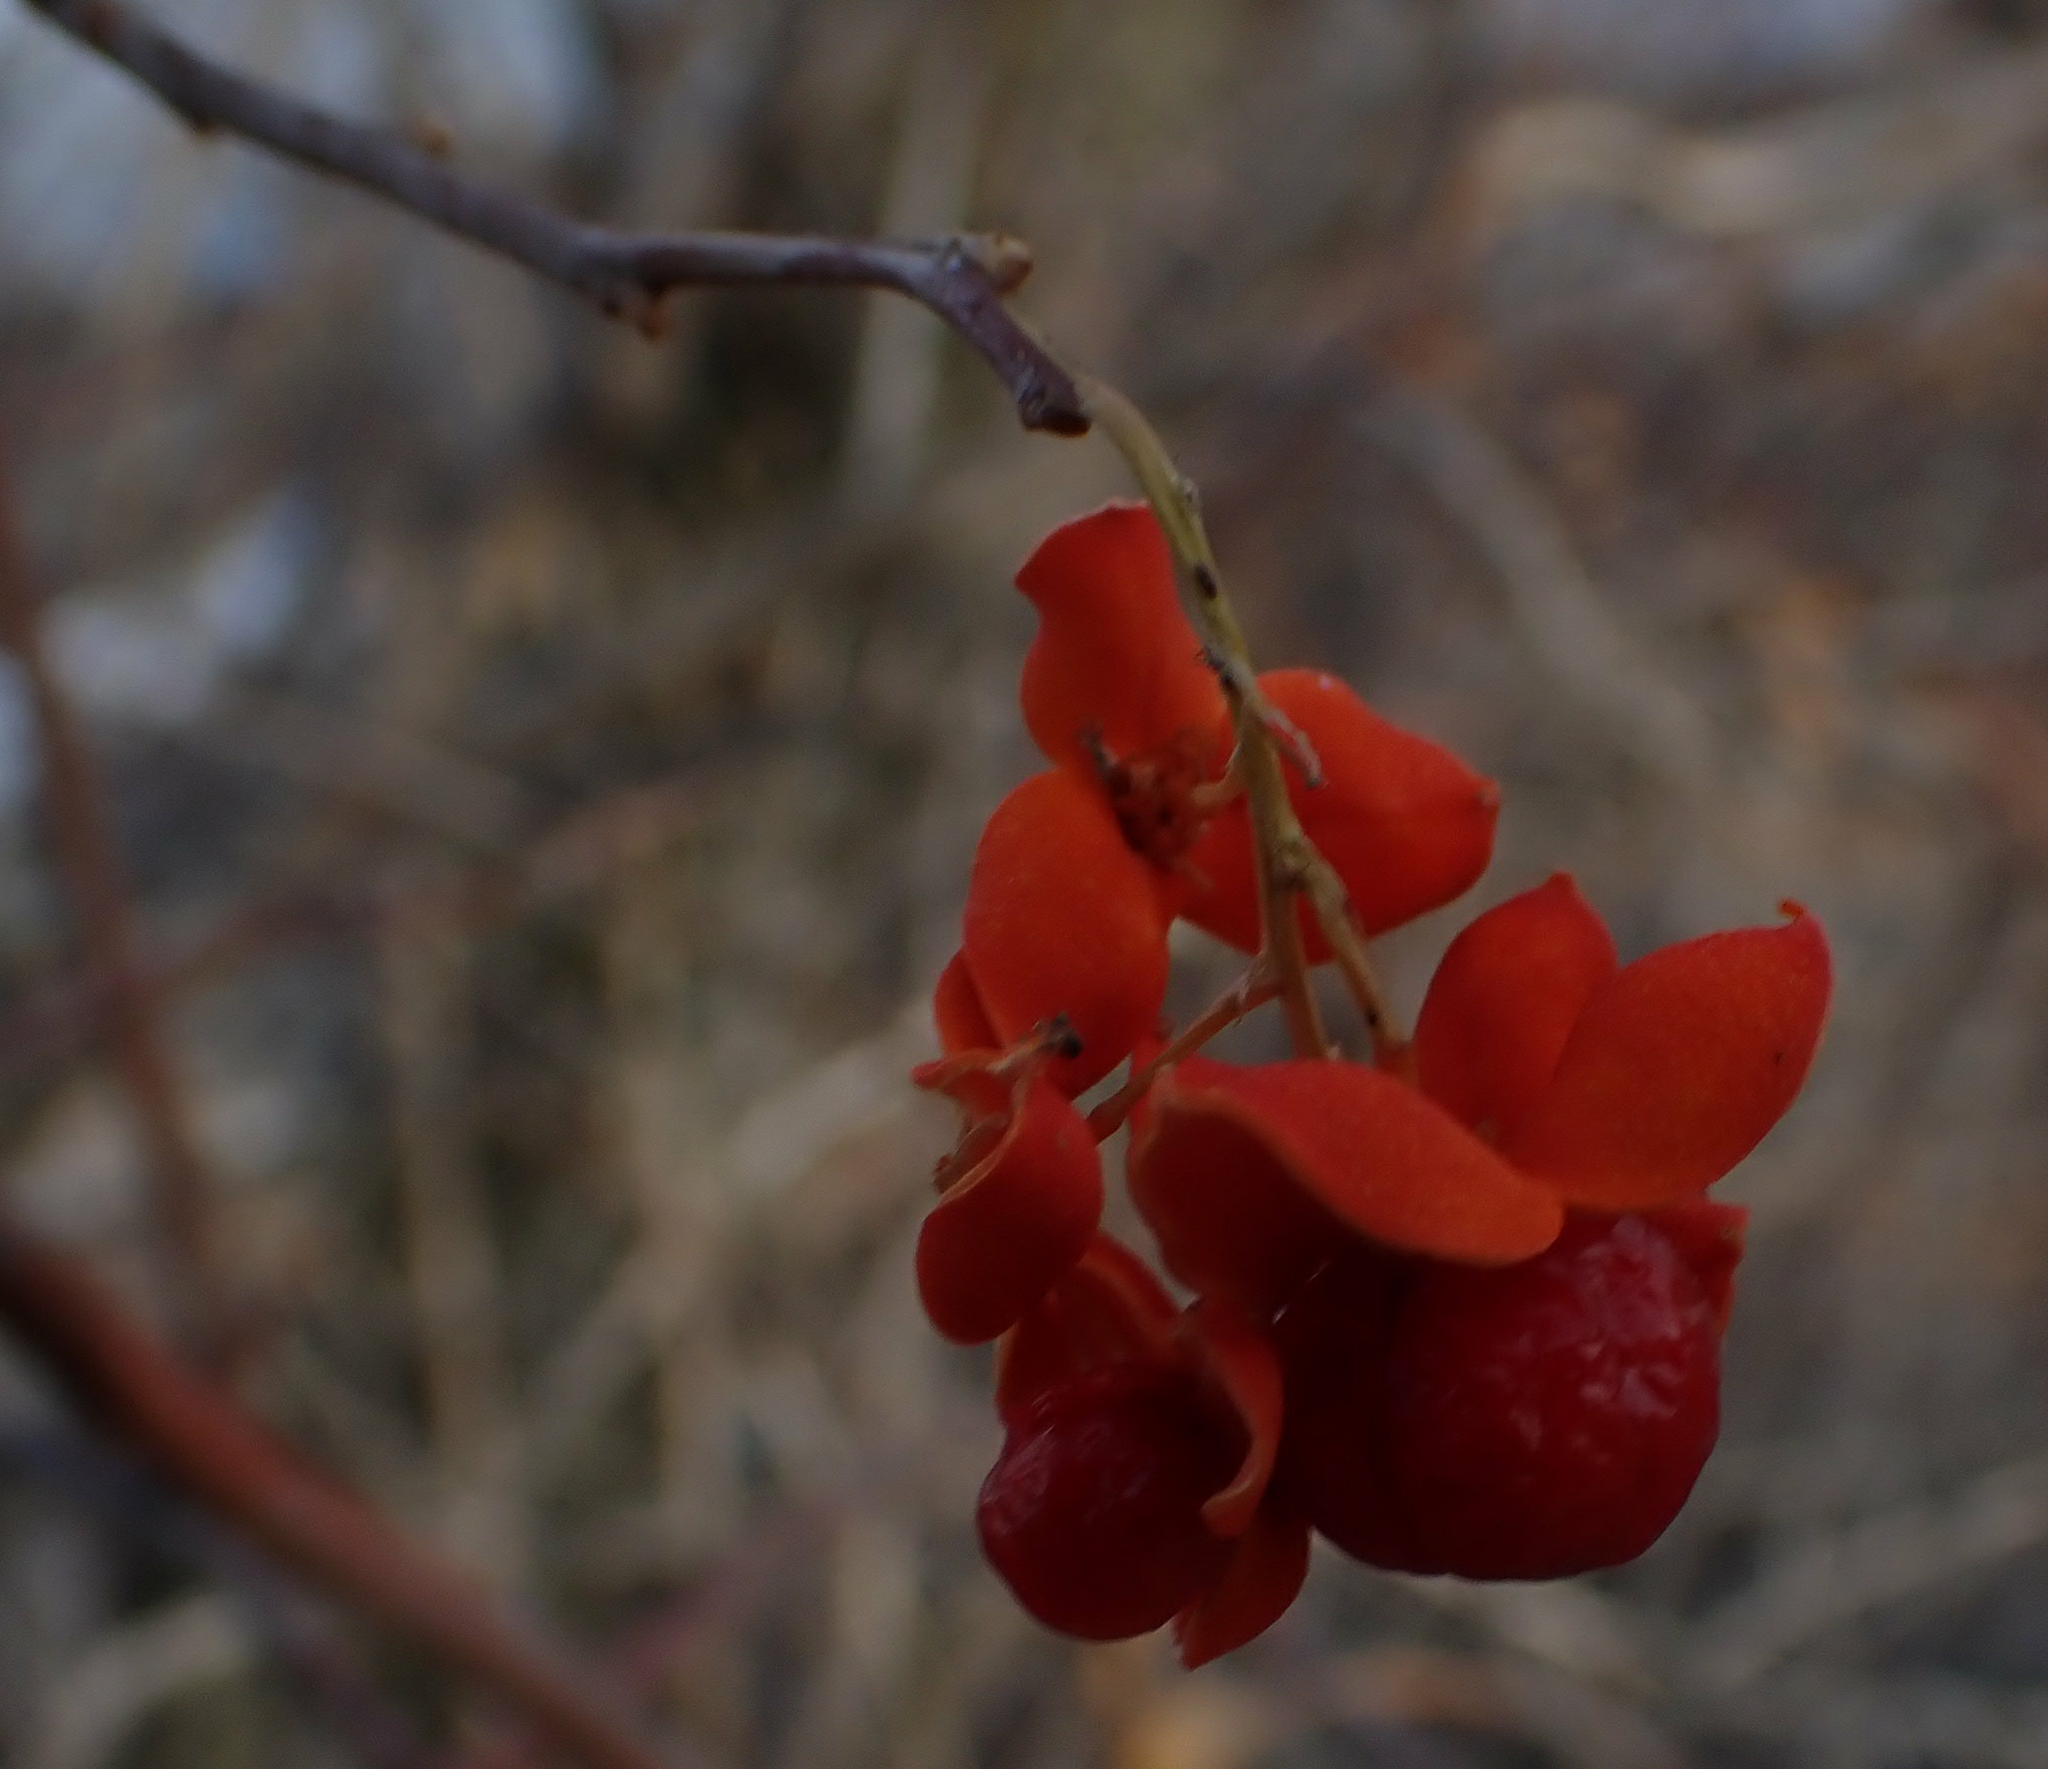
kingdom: Plantae
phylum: Tracheophyta
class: Magnoliopsida
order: Celastrales
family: Celastraceae
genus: Celastrus
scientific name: Celastrus scandens
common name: American bittersweet
